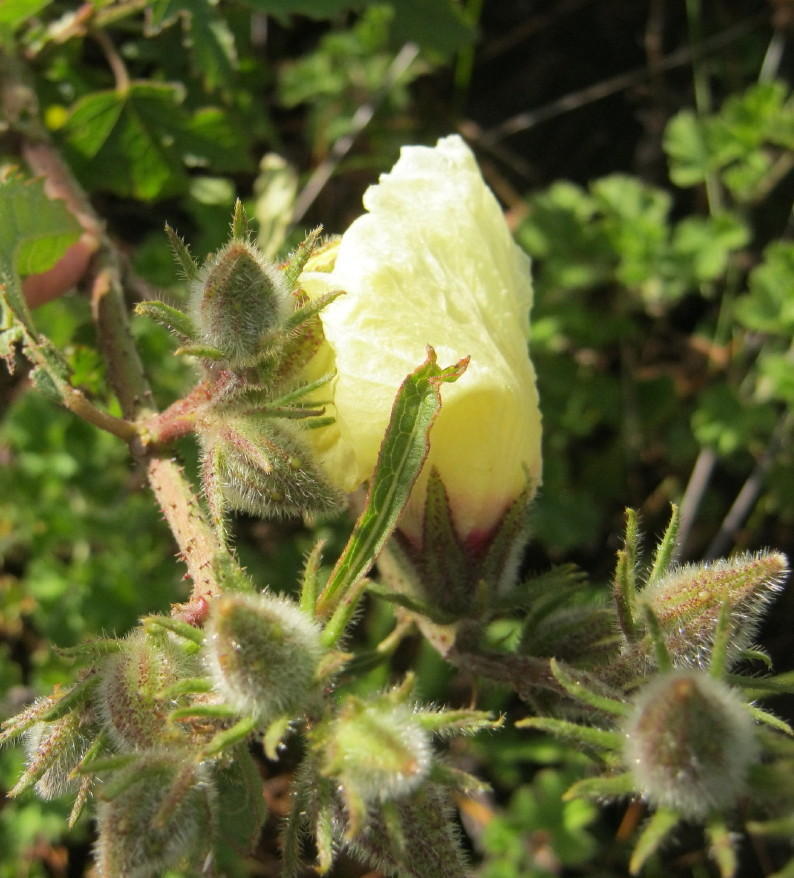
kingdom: Plantae
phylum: Tracheophyta
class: Magnoliopsida
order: Malvales
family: Malvaceae
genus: Hibiscus
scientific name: Hibiscus diversifolius
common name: Cape hibiscus
